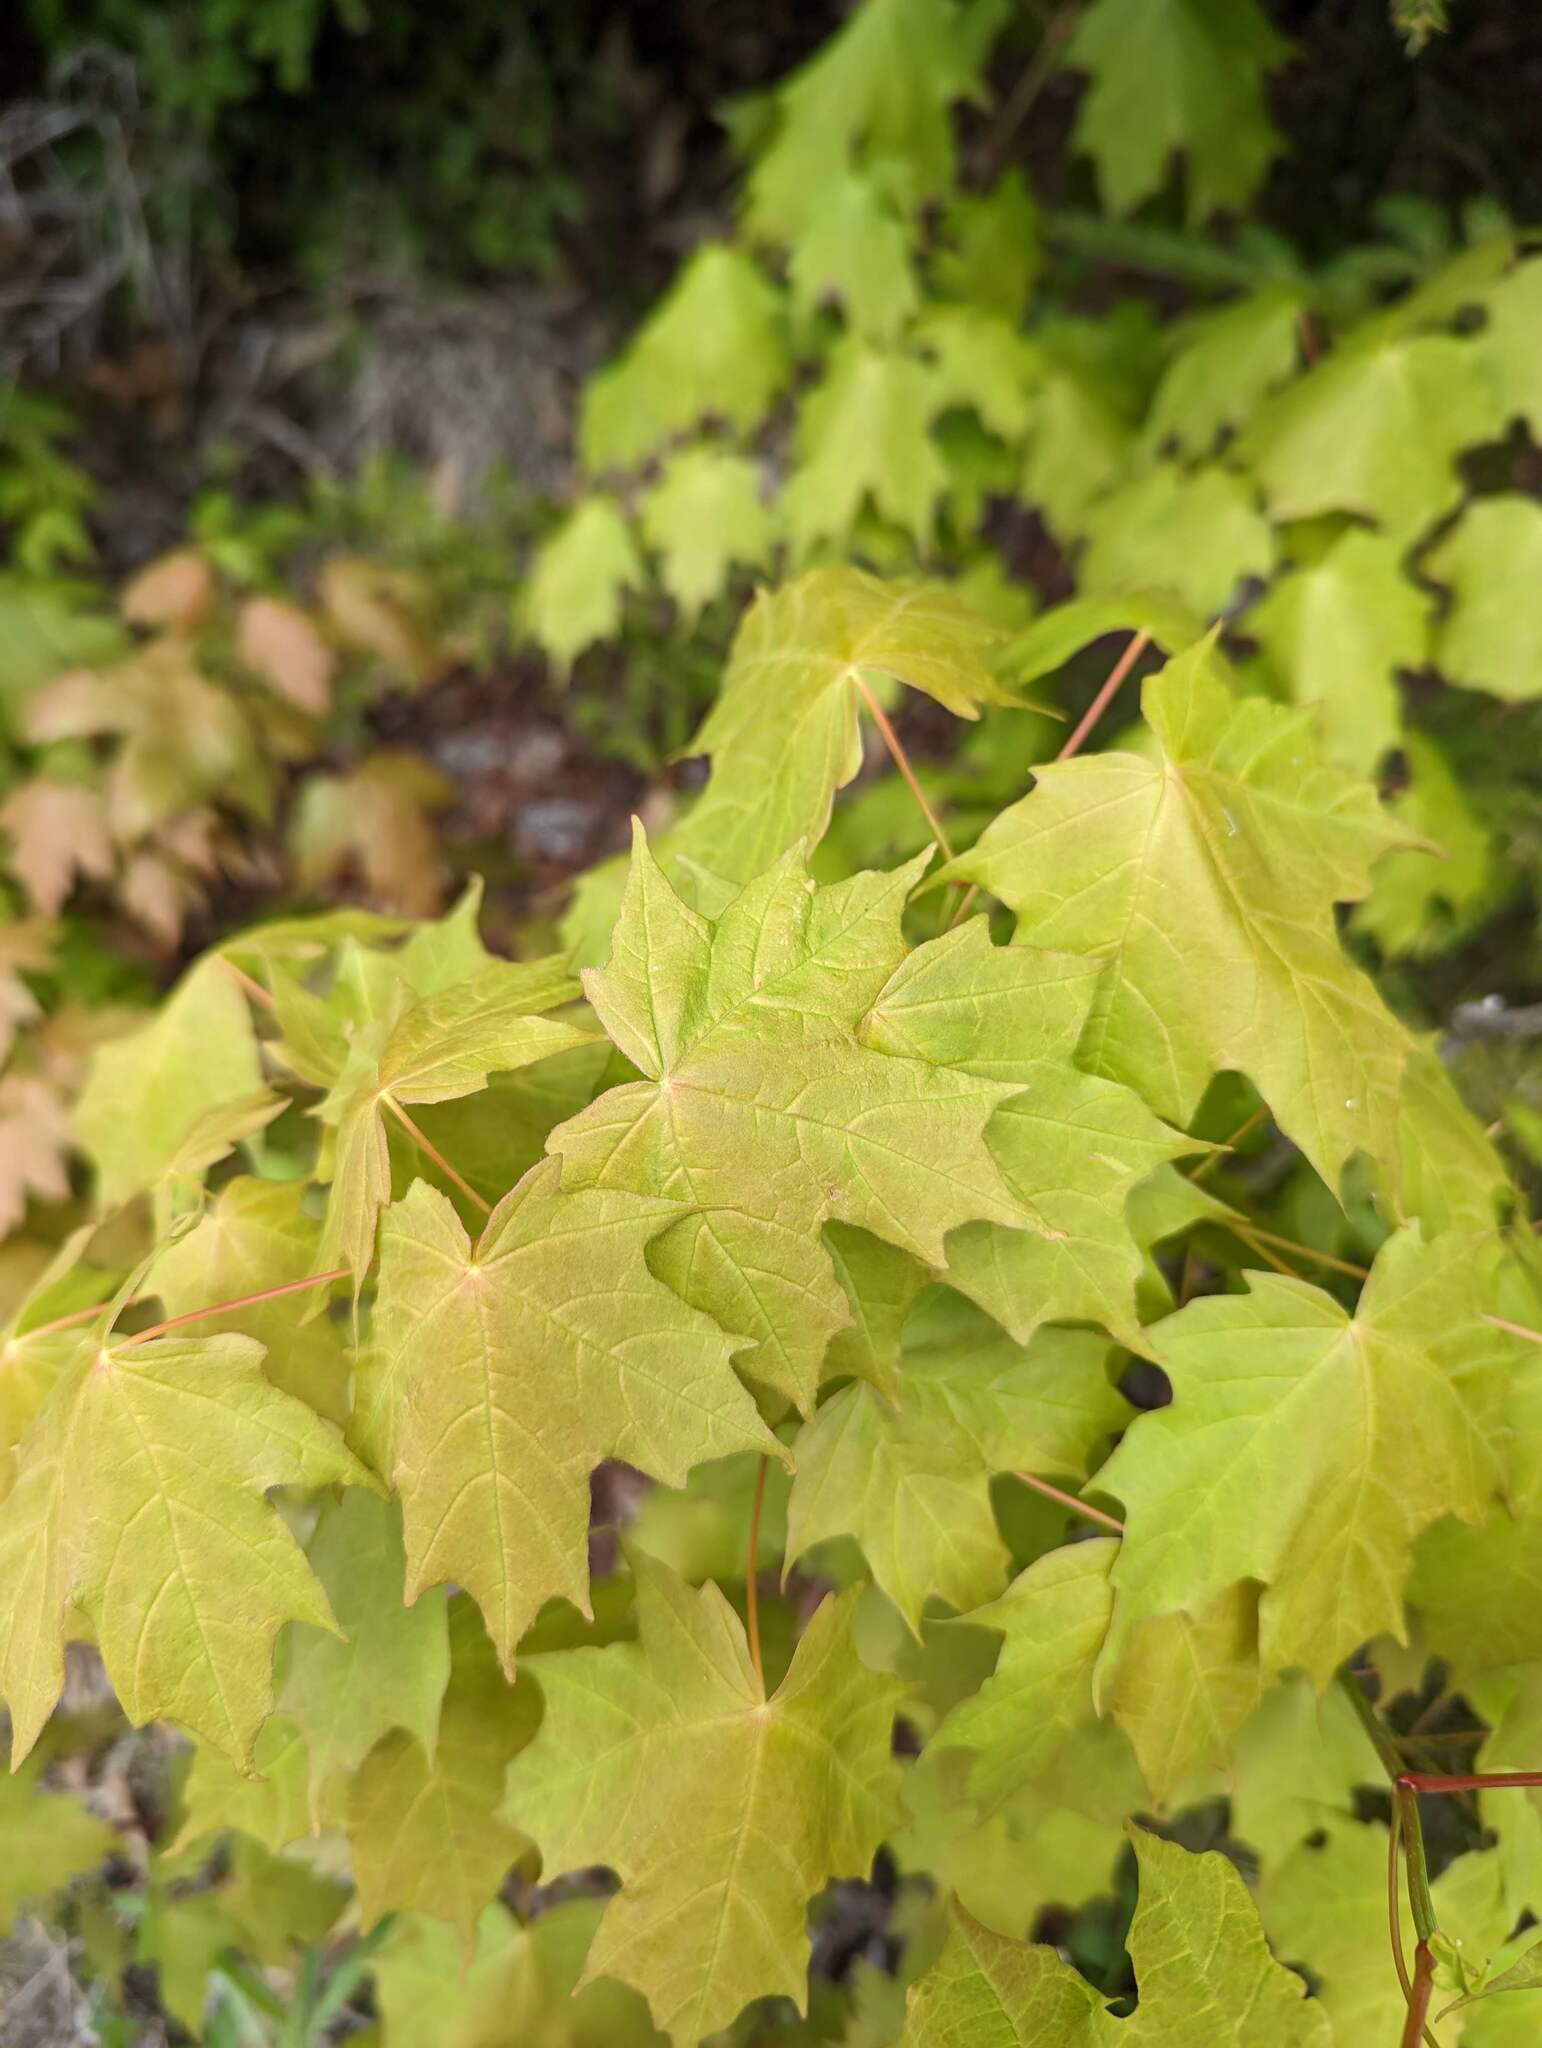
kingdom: Plantae
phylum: Tracheophyta
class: Magnoliopsida
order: Sapindales
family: Sapindaceae
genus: Acer
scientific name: Acer saccharum
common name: Sugar maple
